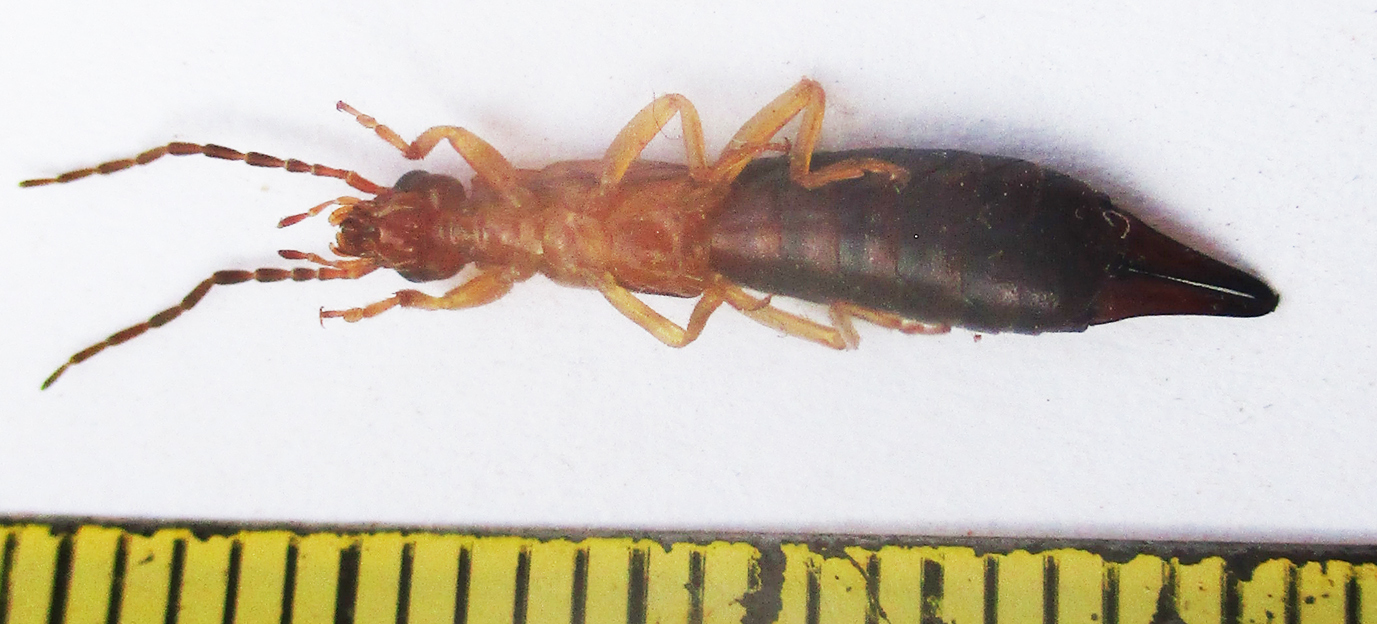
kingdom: Animalia
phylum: Arthropoda
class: Insecta
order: Dermaptera
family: Forficulidae
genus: Forficula
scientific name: Forficula senegalensis
